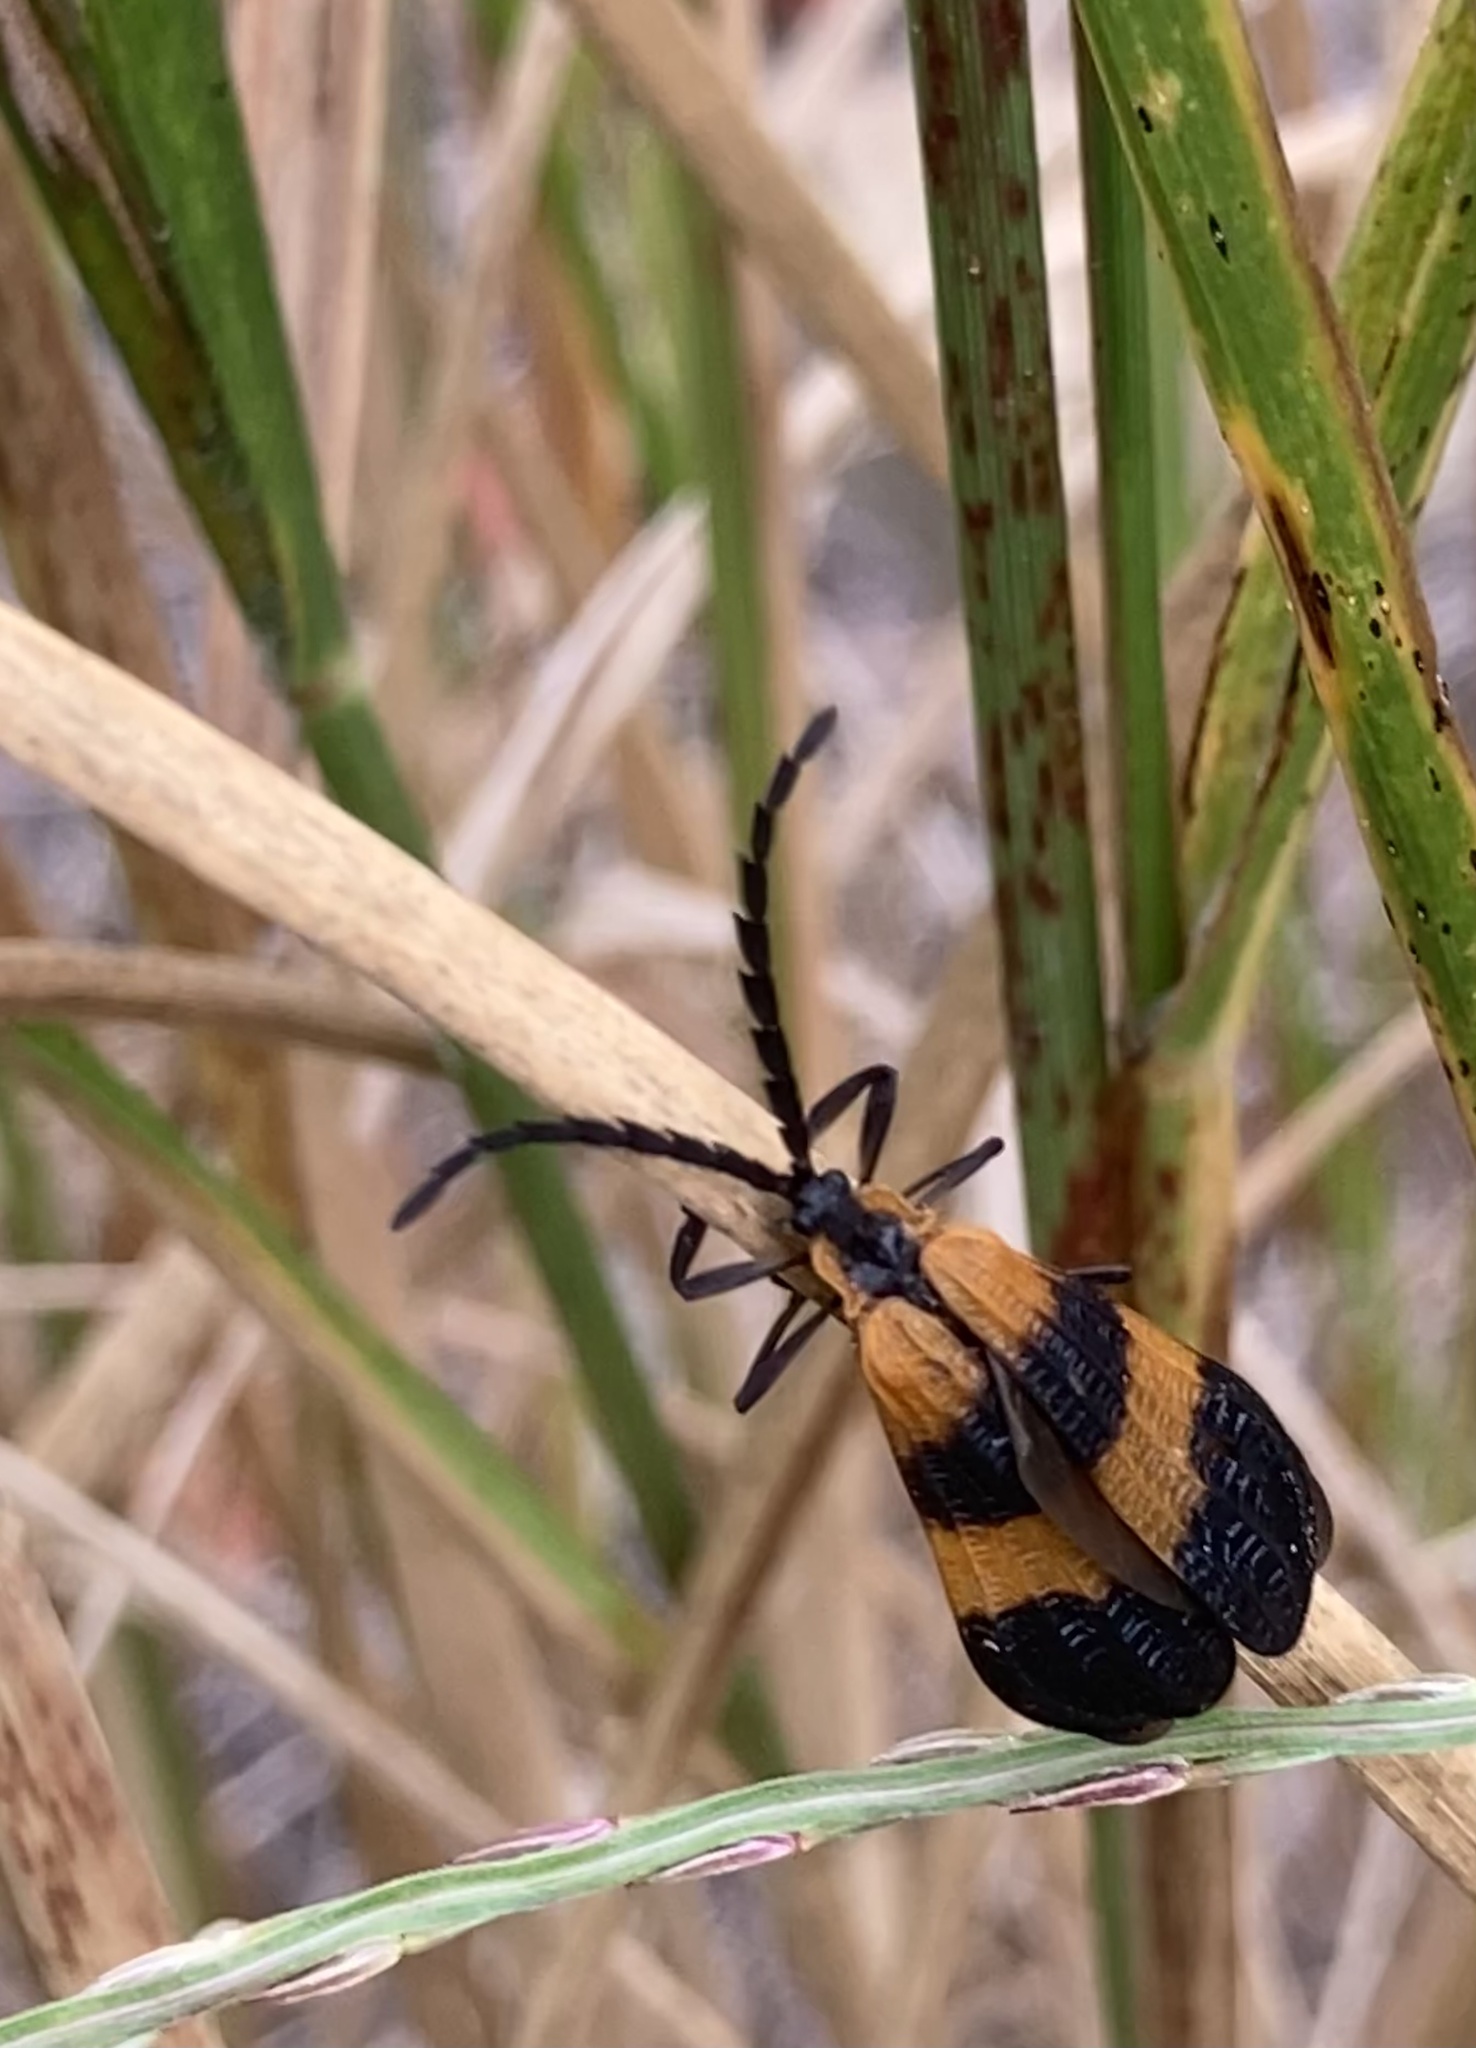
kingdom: Animalia
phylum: Arthropoda
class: Insecta
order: Coleoptera
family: Lycidae
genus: Calopteron
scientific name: Calopteron terminale
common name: End band net-winged beetle
